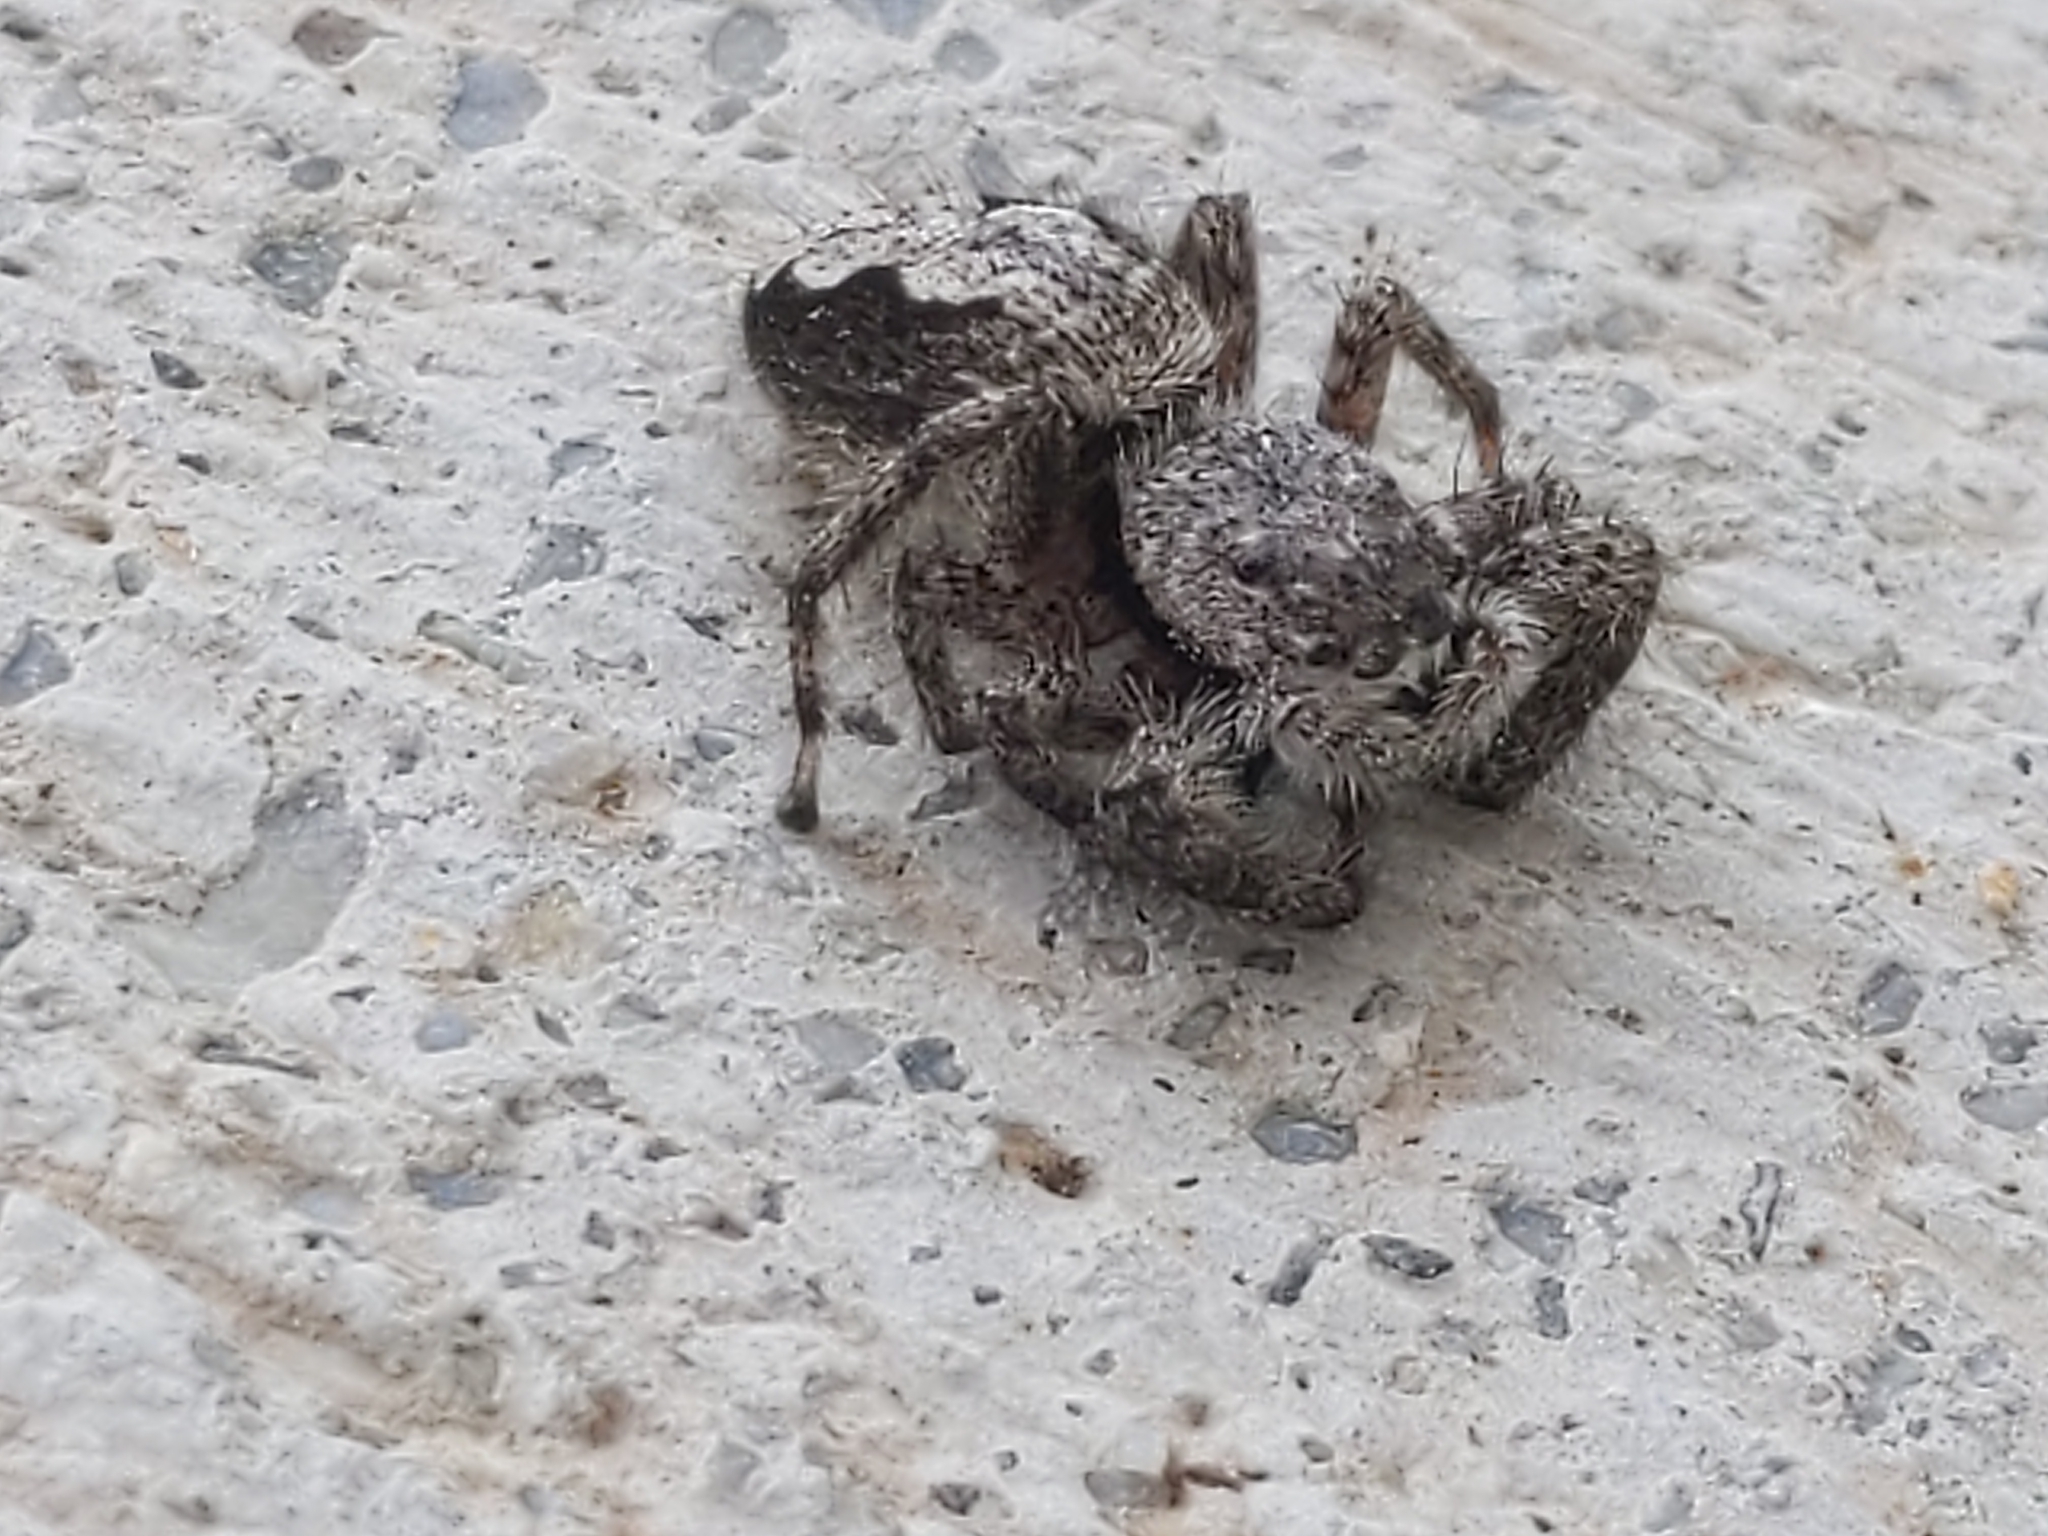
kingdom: Animalia
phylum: Arthropoda
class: Arachnida
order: Araneae
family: Salticidae
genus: Platycryptus
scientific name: Platycryptus undatus
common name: Tan jumping spider
